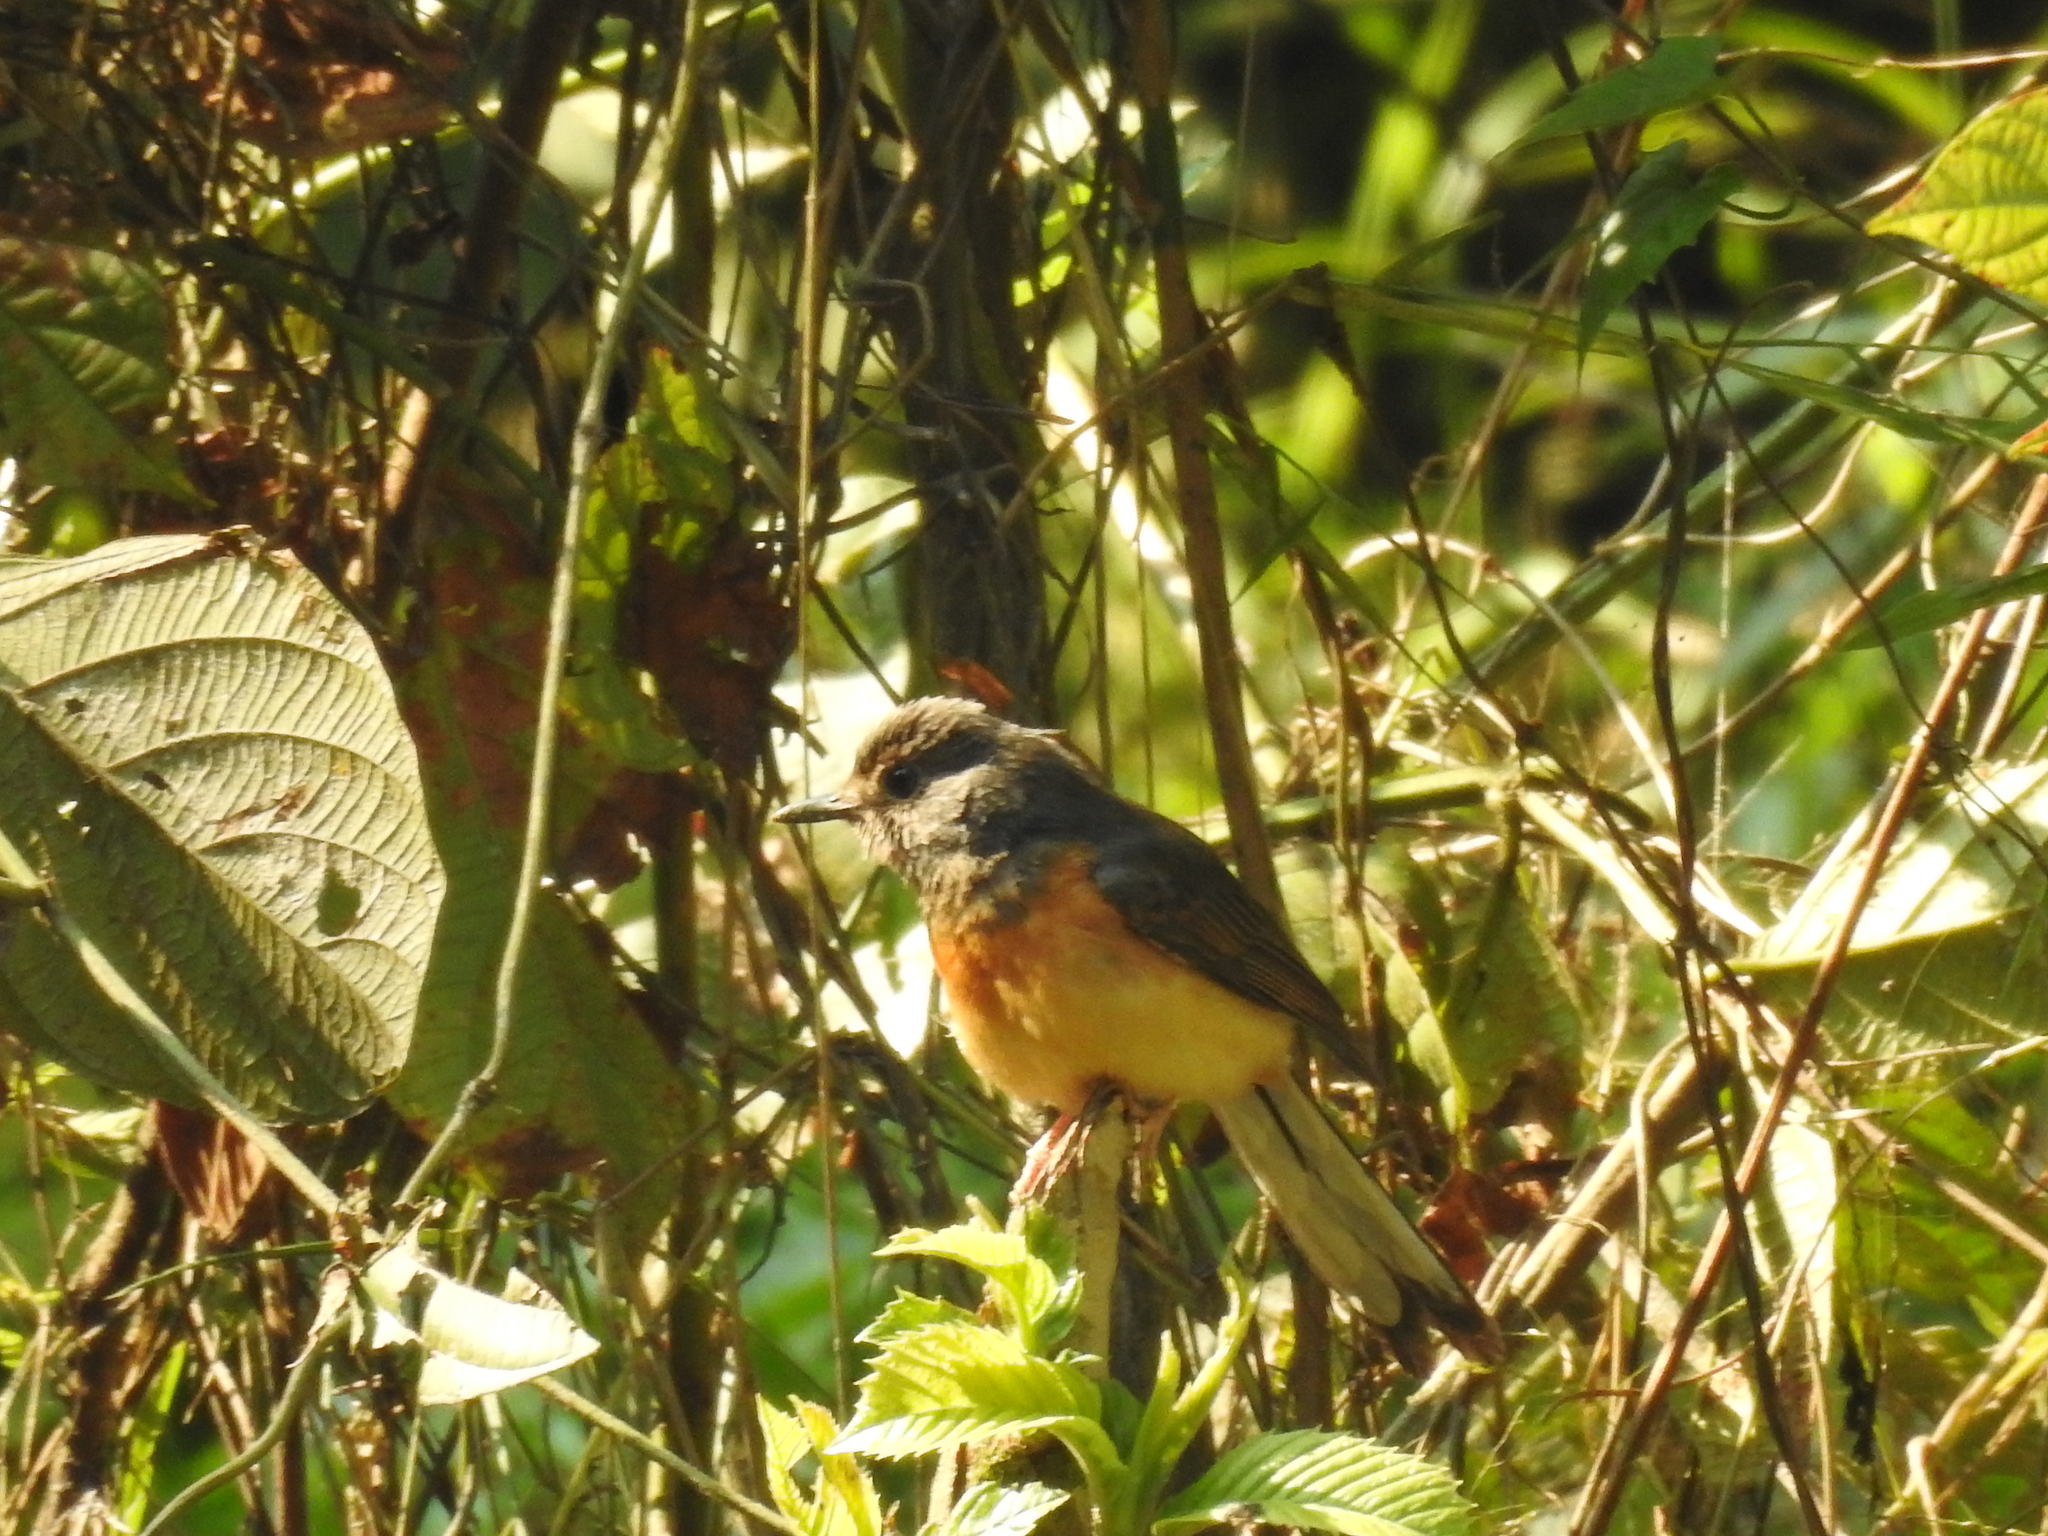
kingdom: Animalia
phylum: Chordata
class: Aves
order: Passeriformes
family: Muscicapidae
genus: Copsychus
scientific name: Copsychus malabaricus
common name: White-rumped shama
